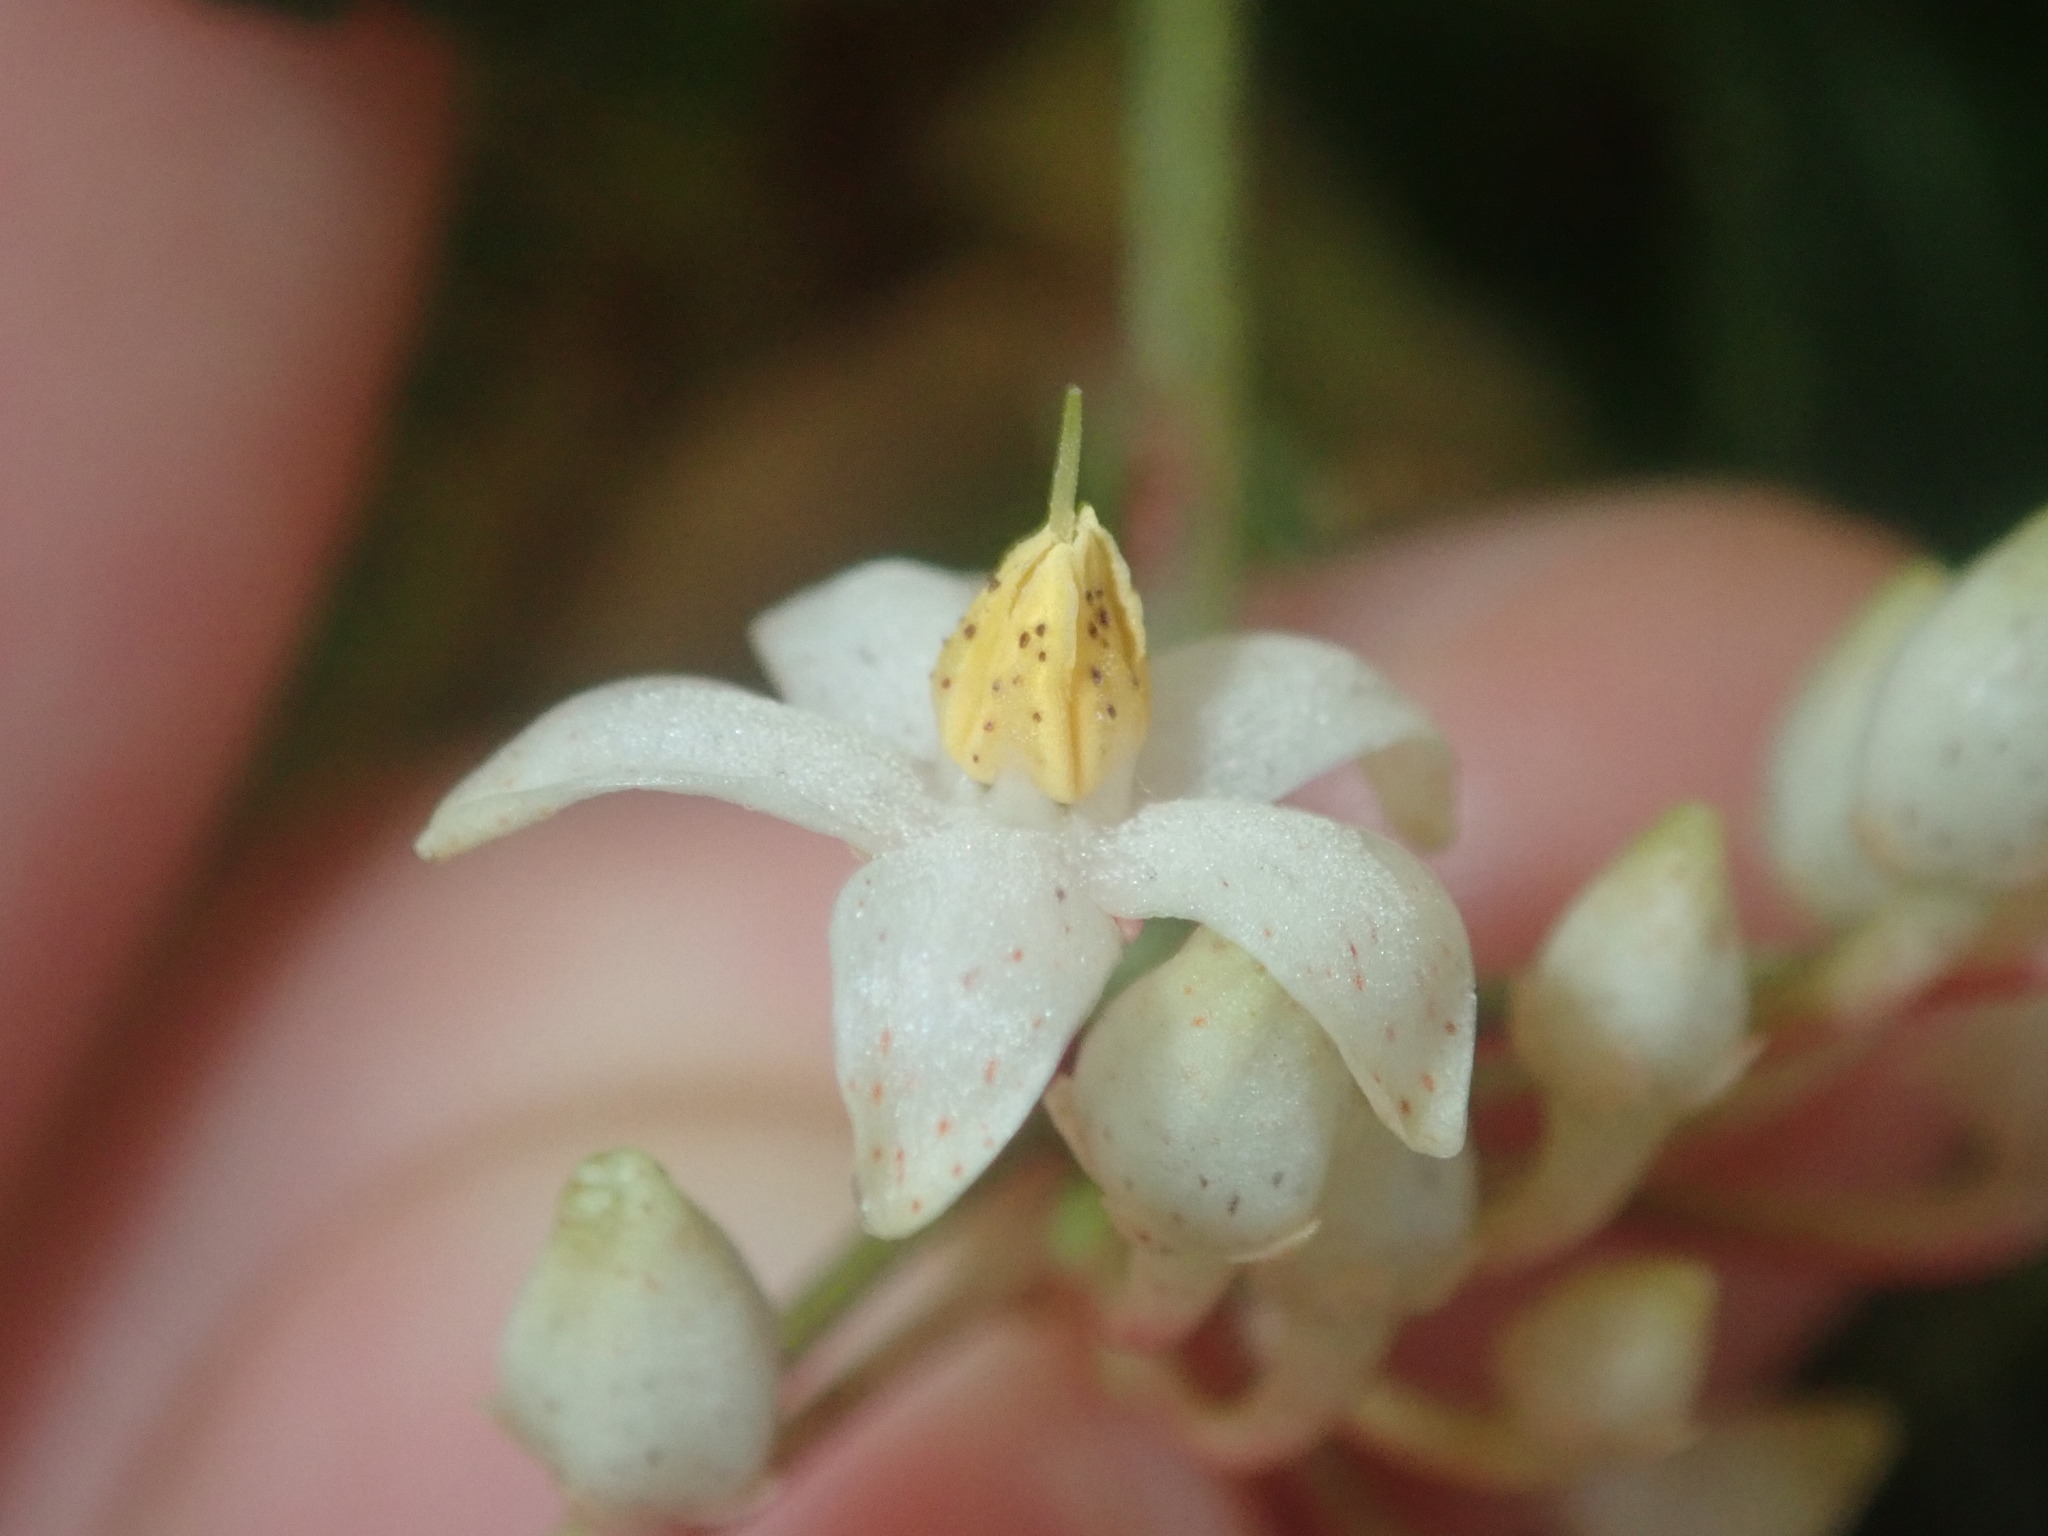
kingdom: Plantae
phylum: Tracheophyta
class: Magnoliopsida
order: Ericales
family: Primulaceae
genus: Ardisia
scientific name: Ardisia crenata
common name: Hen's eyes
